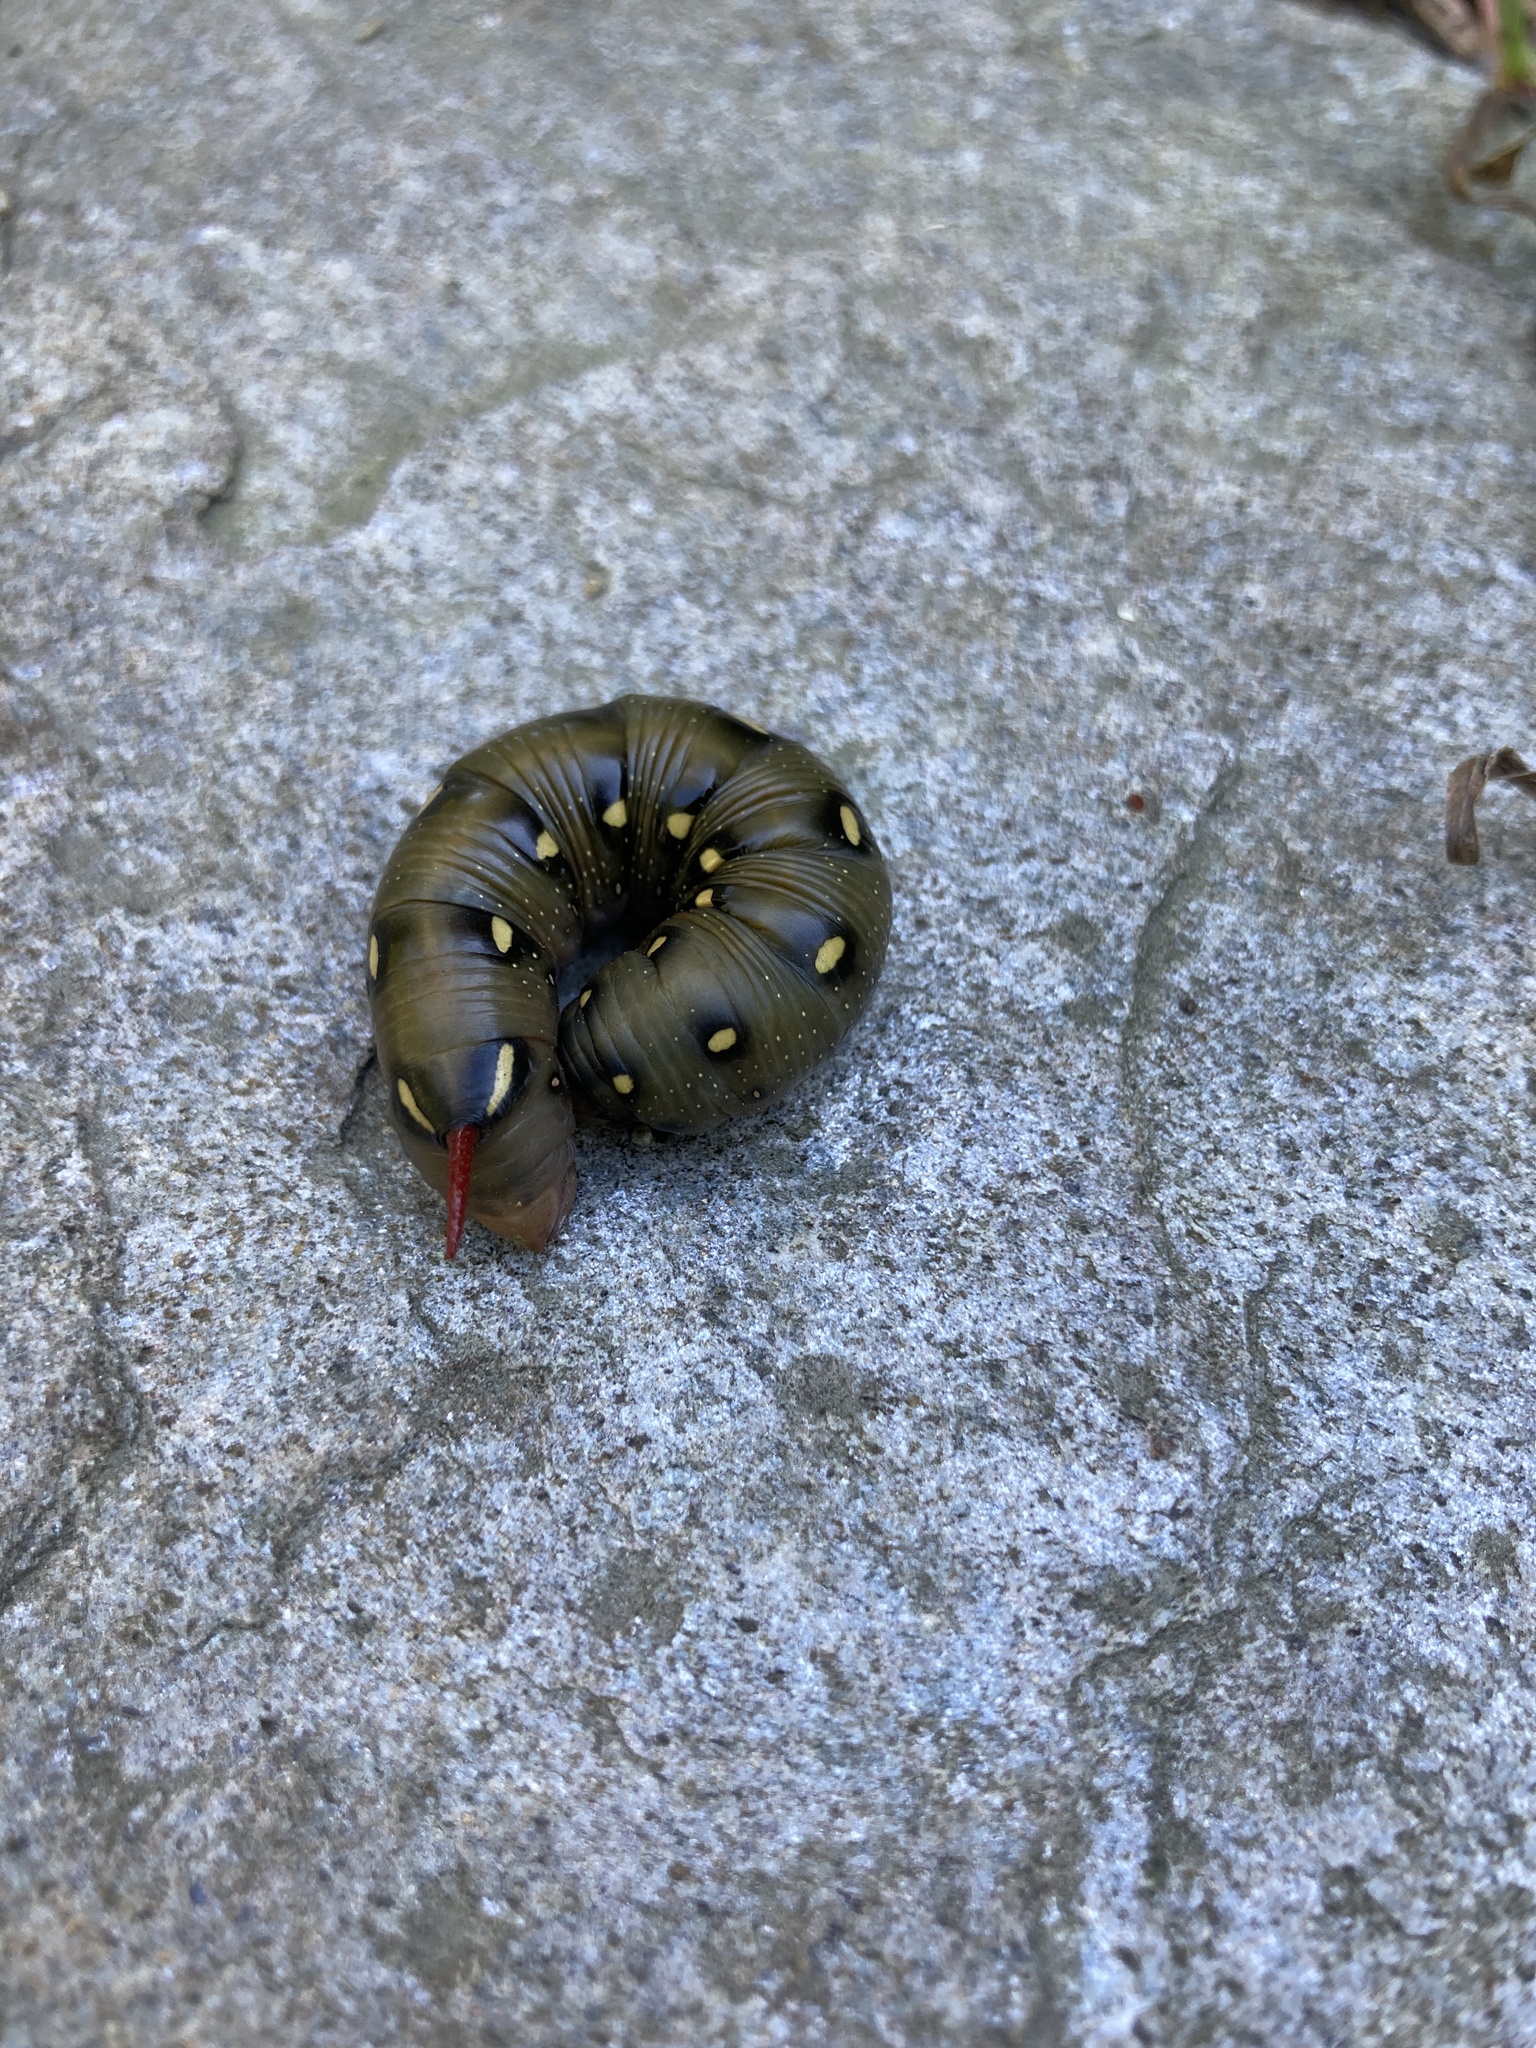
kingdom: Animalia
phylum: Arthropoda
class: Insecta
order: Lepidoptera
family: Sphingidae
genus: Hyles
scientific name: Hyles gallii
